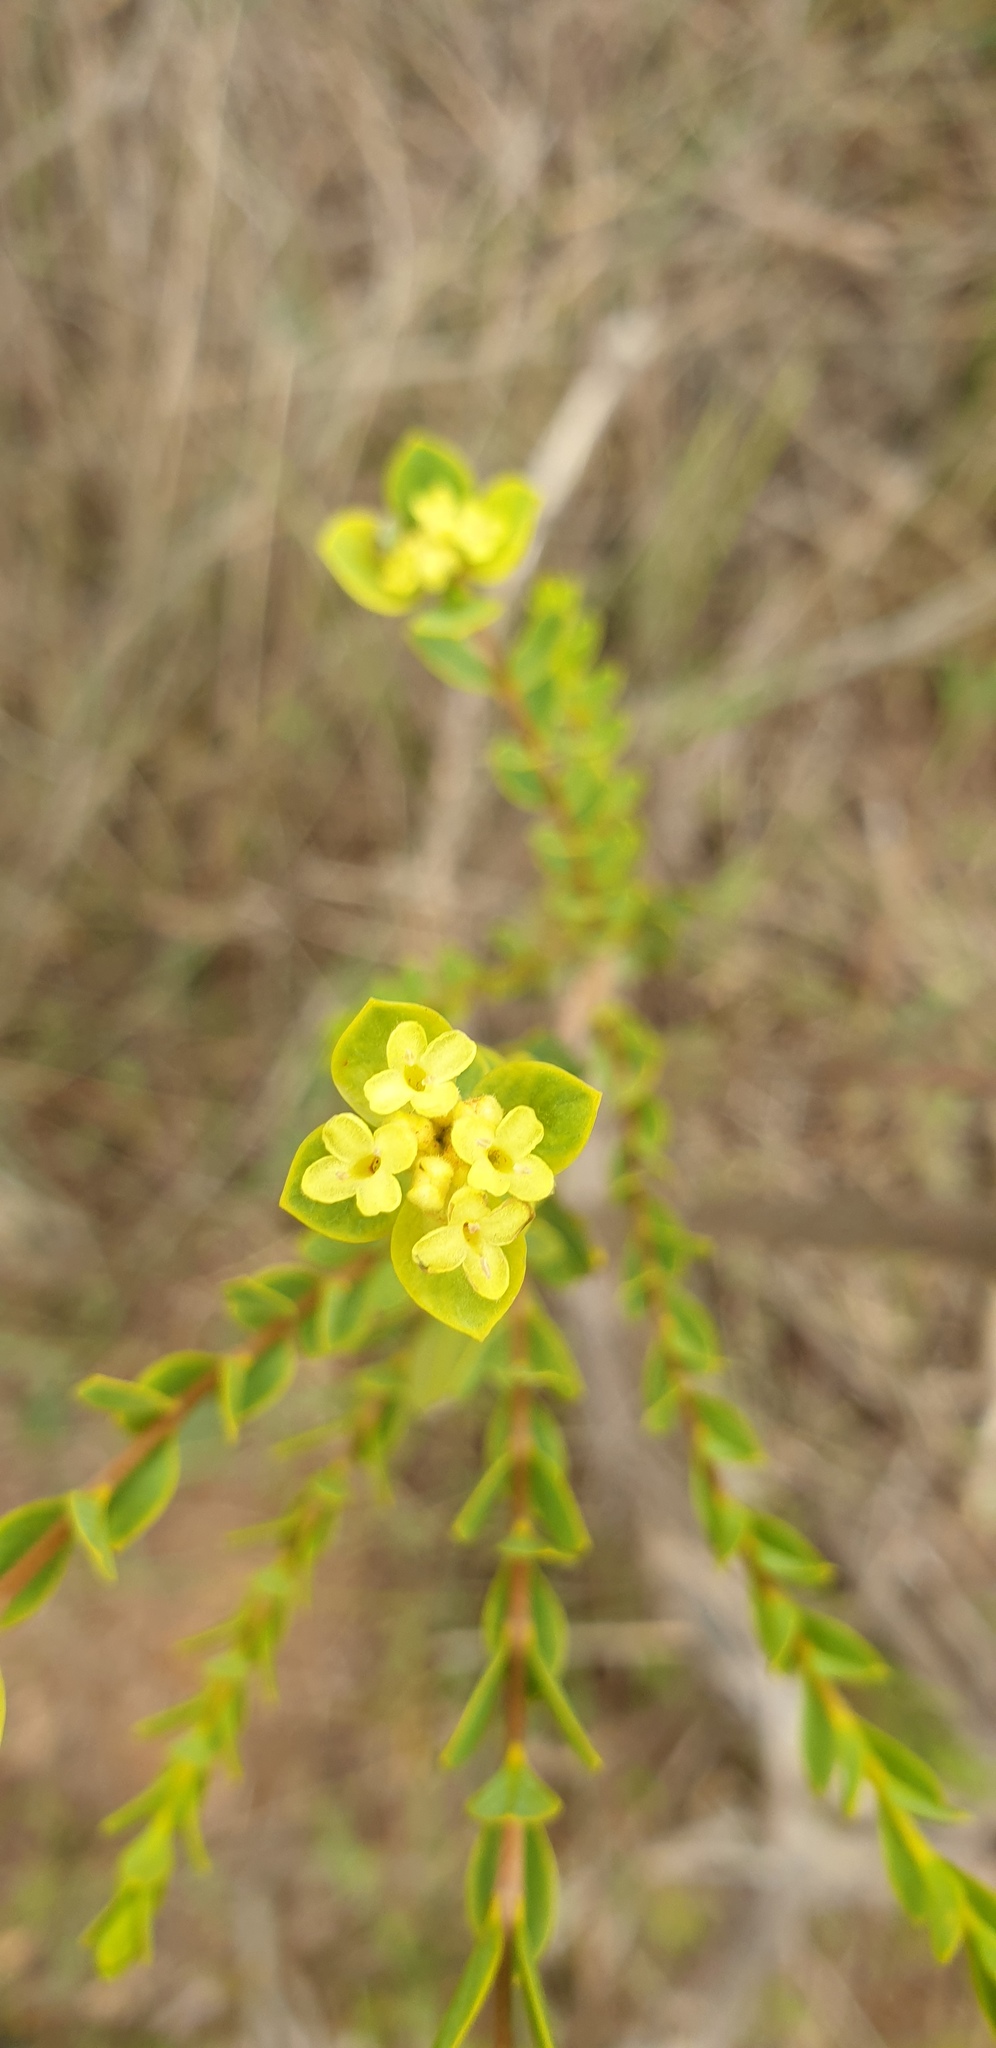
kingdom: Plantae
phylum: Tracheophyta
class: Magnoliopsida
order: Malvales
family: Thymelaeaceae
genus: Pimelea
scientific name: Pimelea flava
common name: Yellow riceflower
